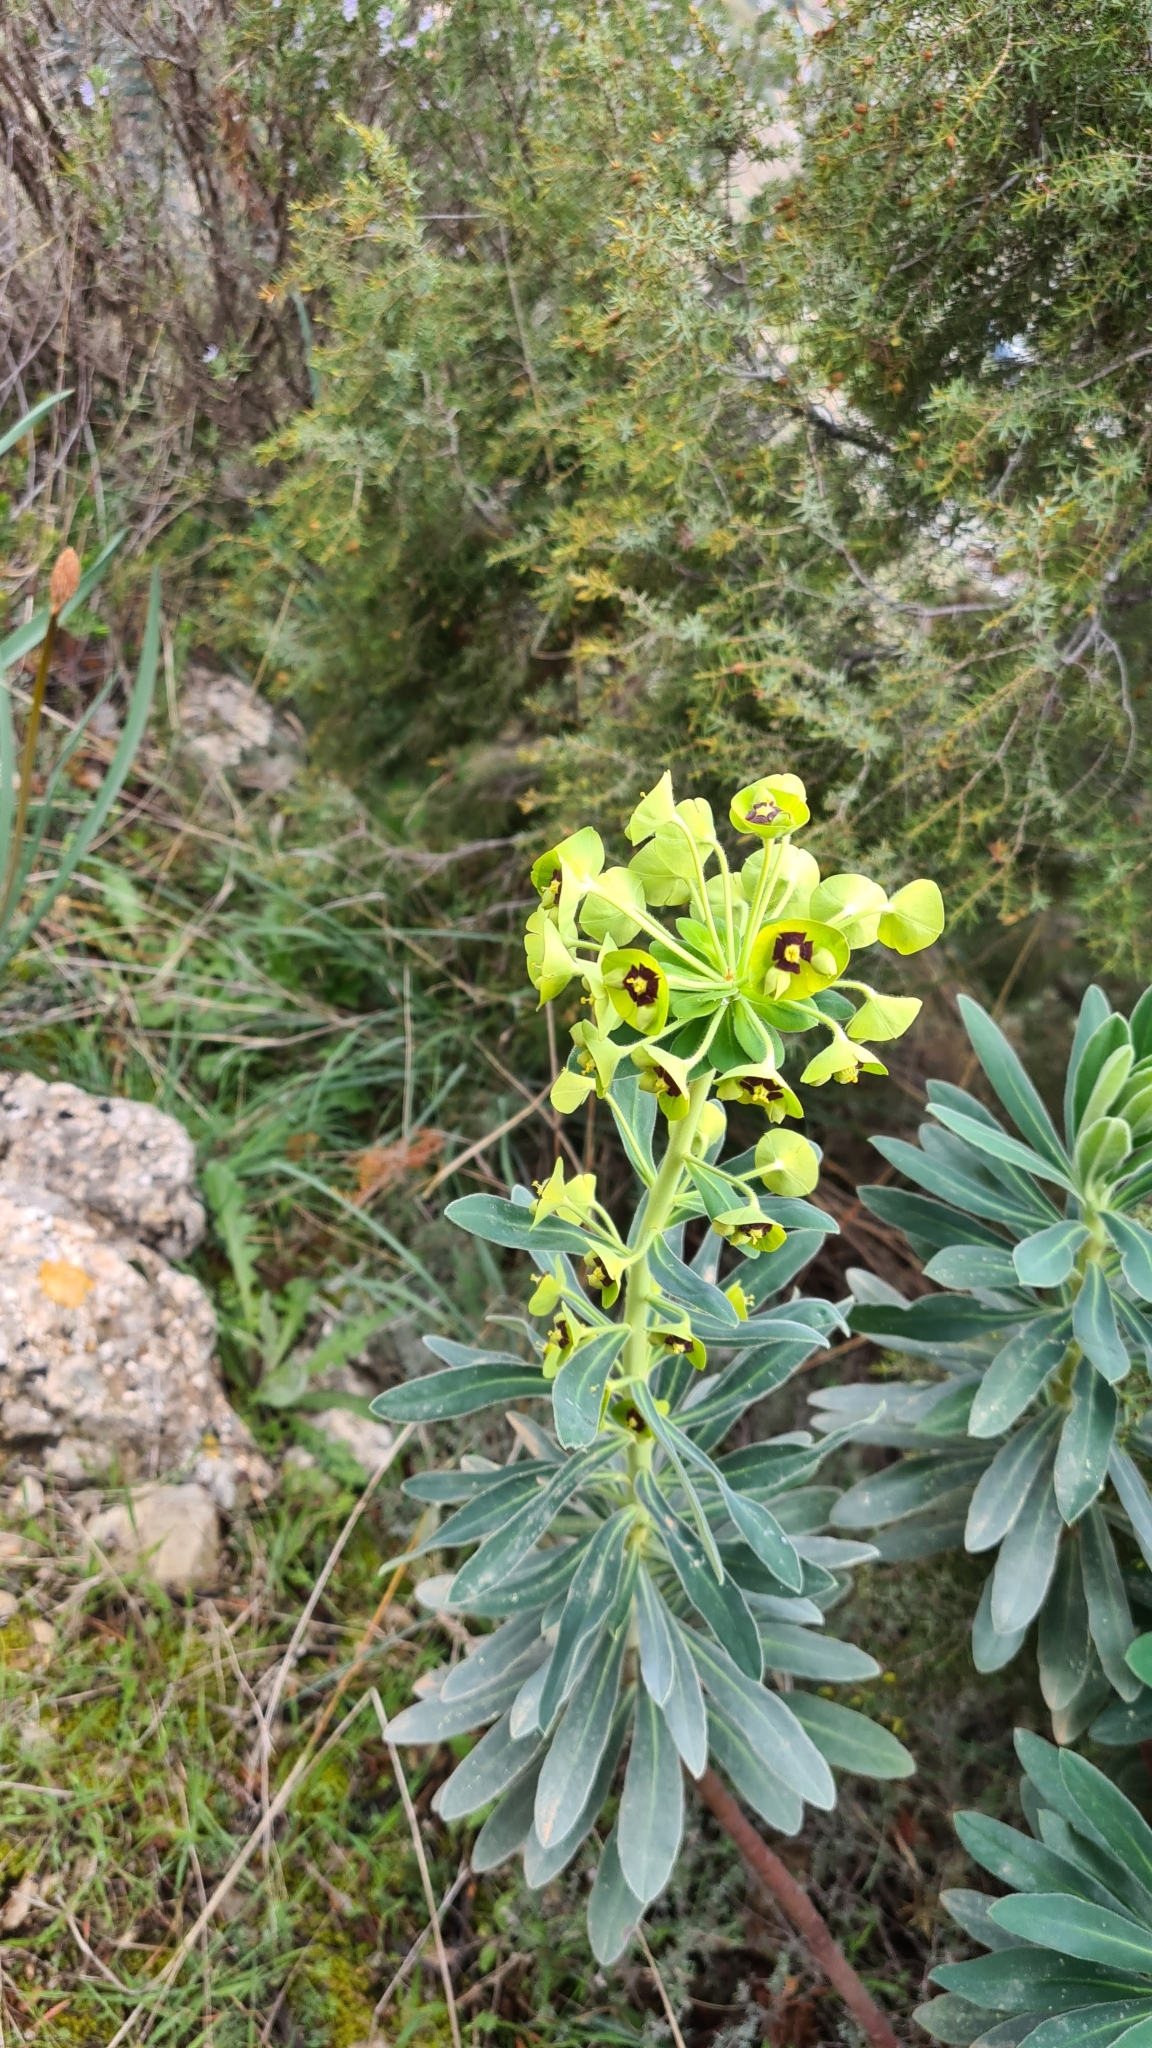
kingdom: Plantae
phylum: Tracheophyta
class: Magnoliopsida
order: Malpighiales
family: Euphorbiaceae
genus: Euphorbia
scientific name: Euphorbia characias
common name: Mediterranean spurge
